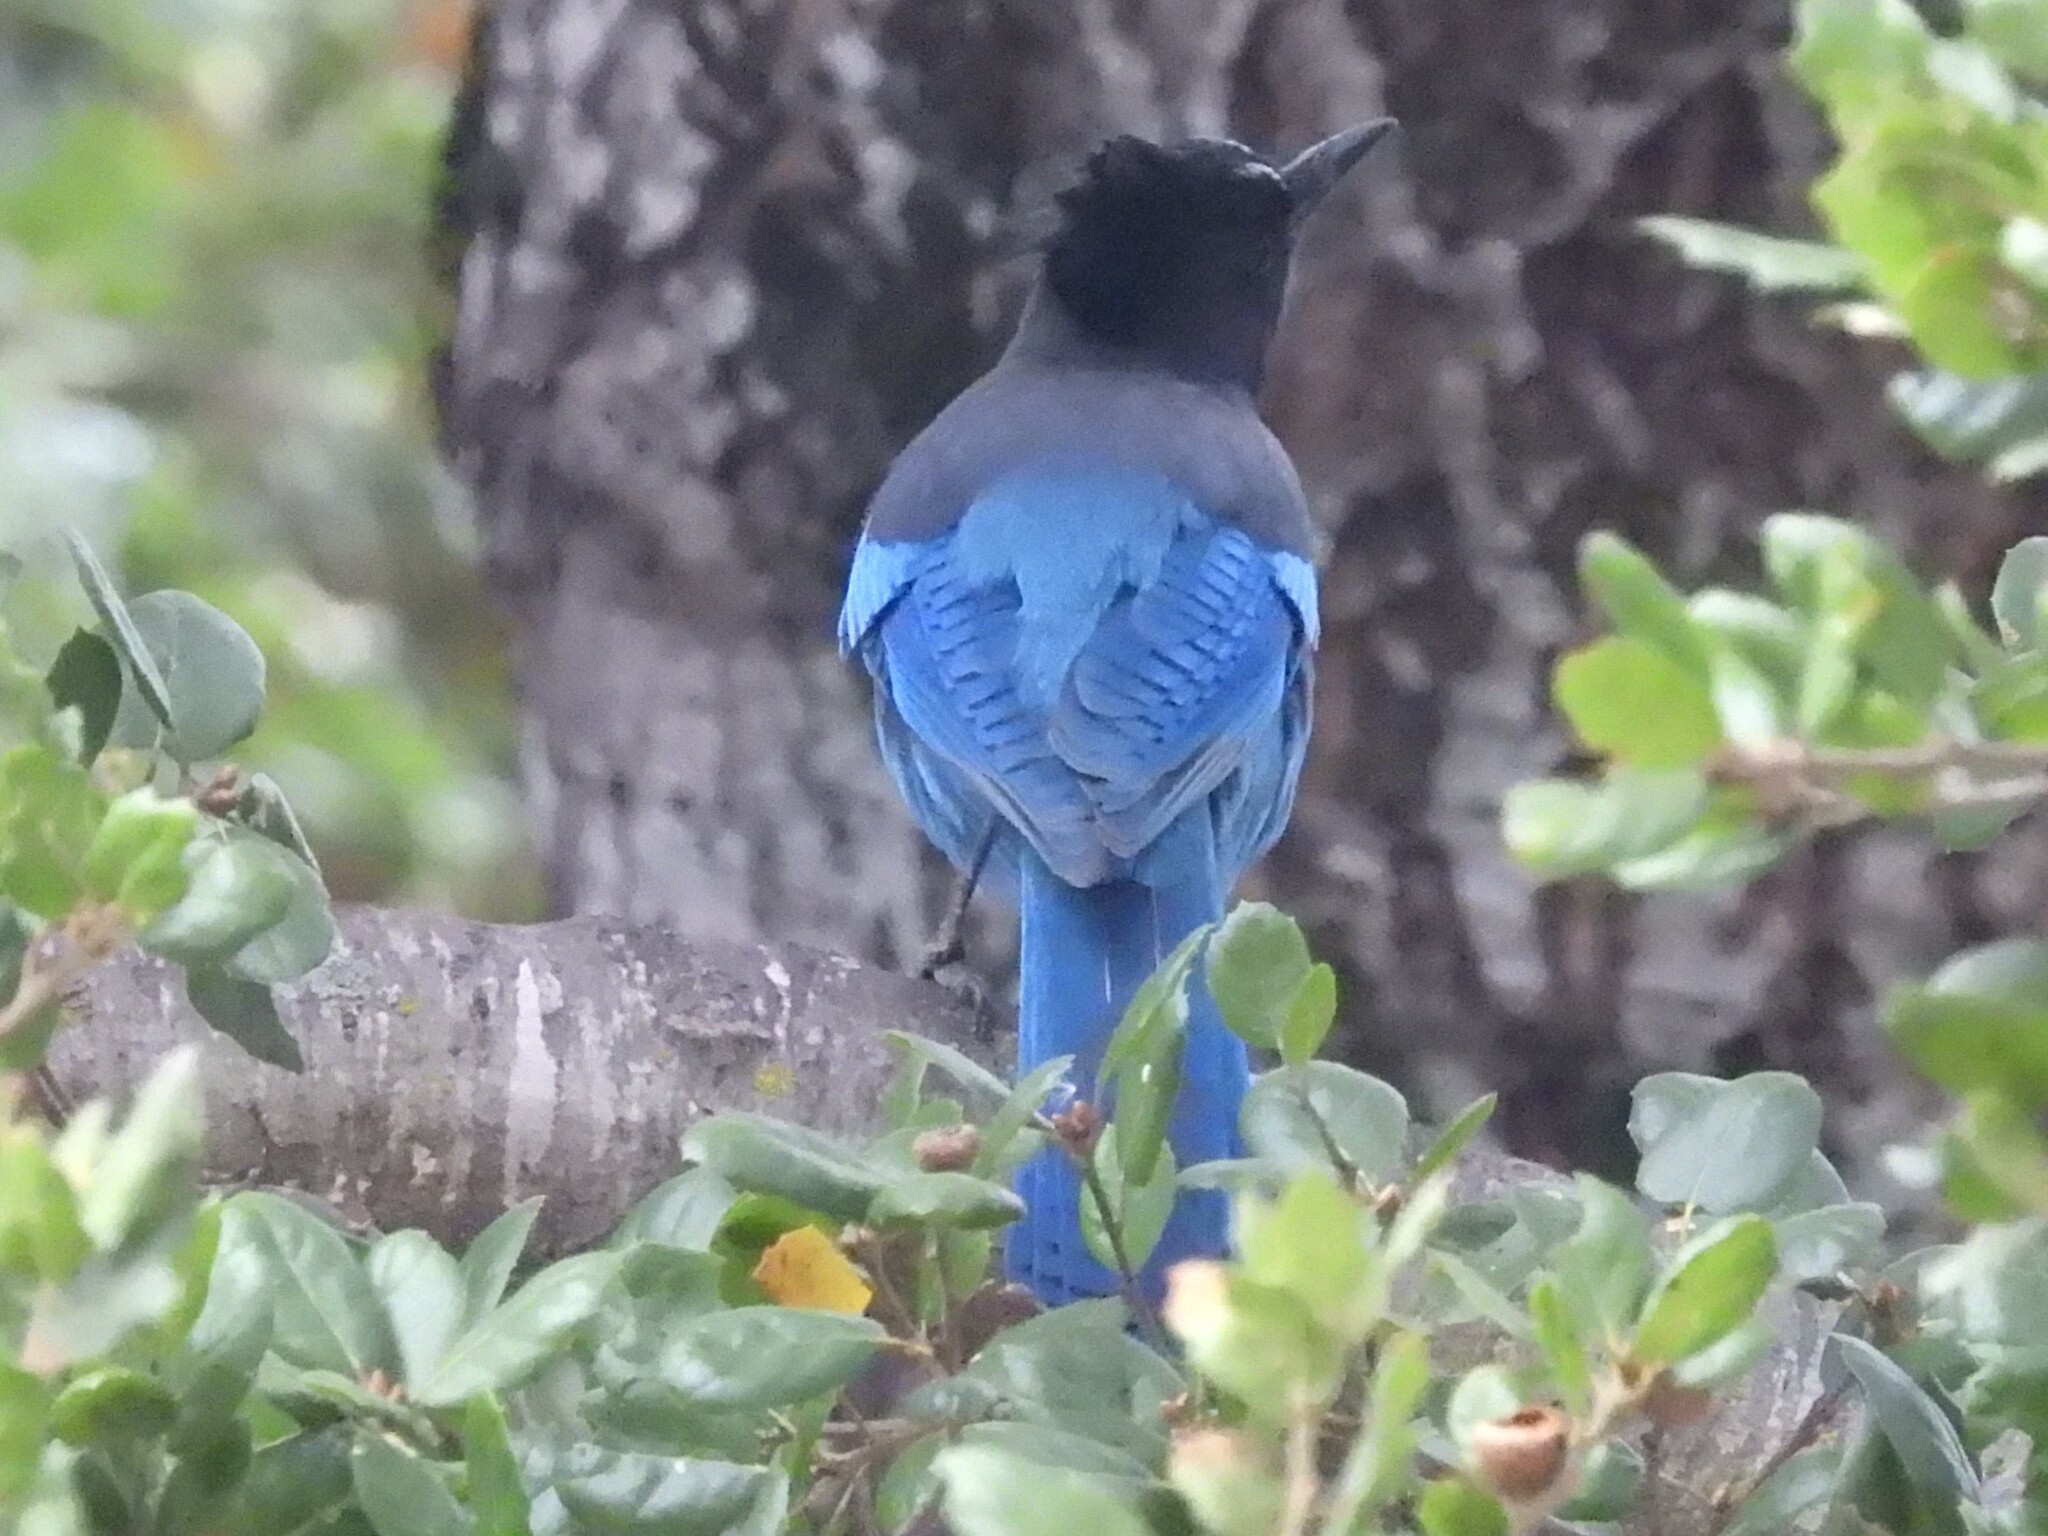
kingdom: Animalia
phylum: Chordata
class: Aves
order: Passeriformes
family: Corvidae
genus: Cyanocitta
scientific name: Cyanocitta stelleri
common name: Steller's jay
